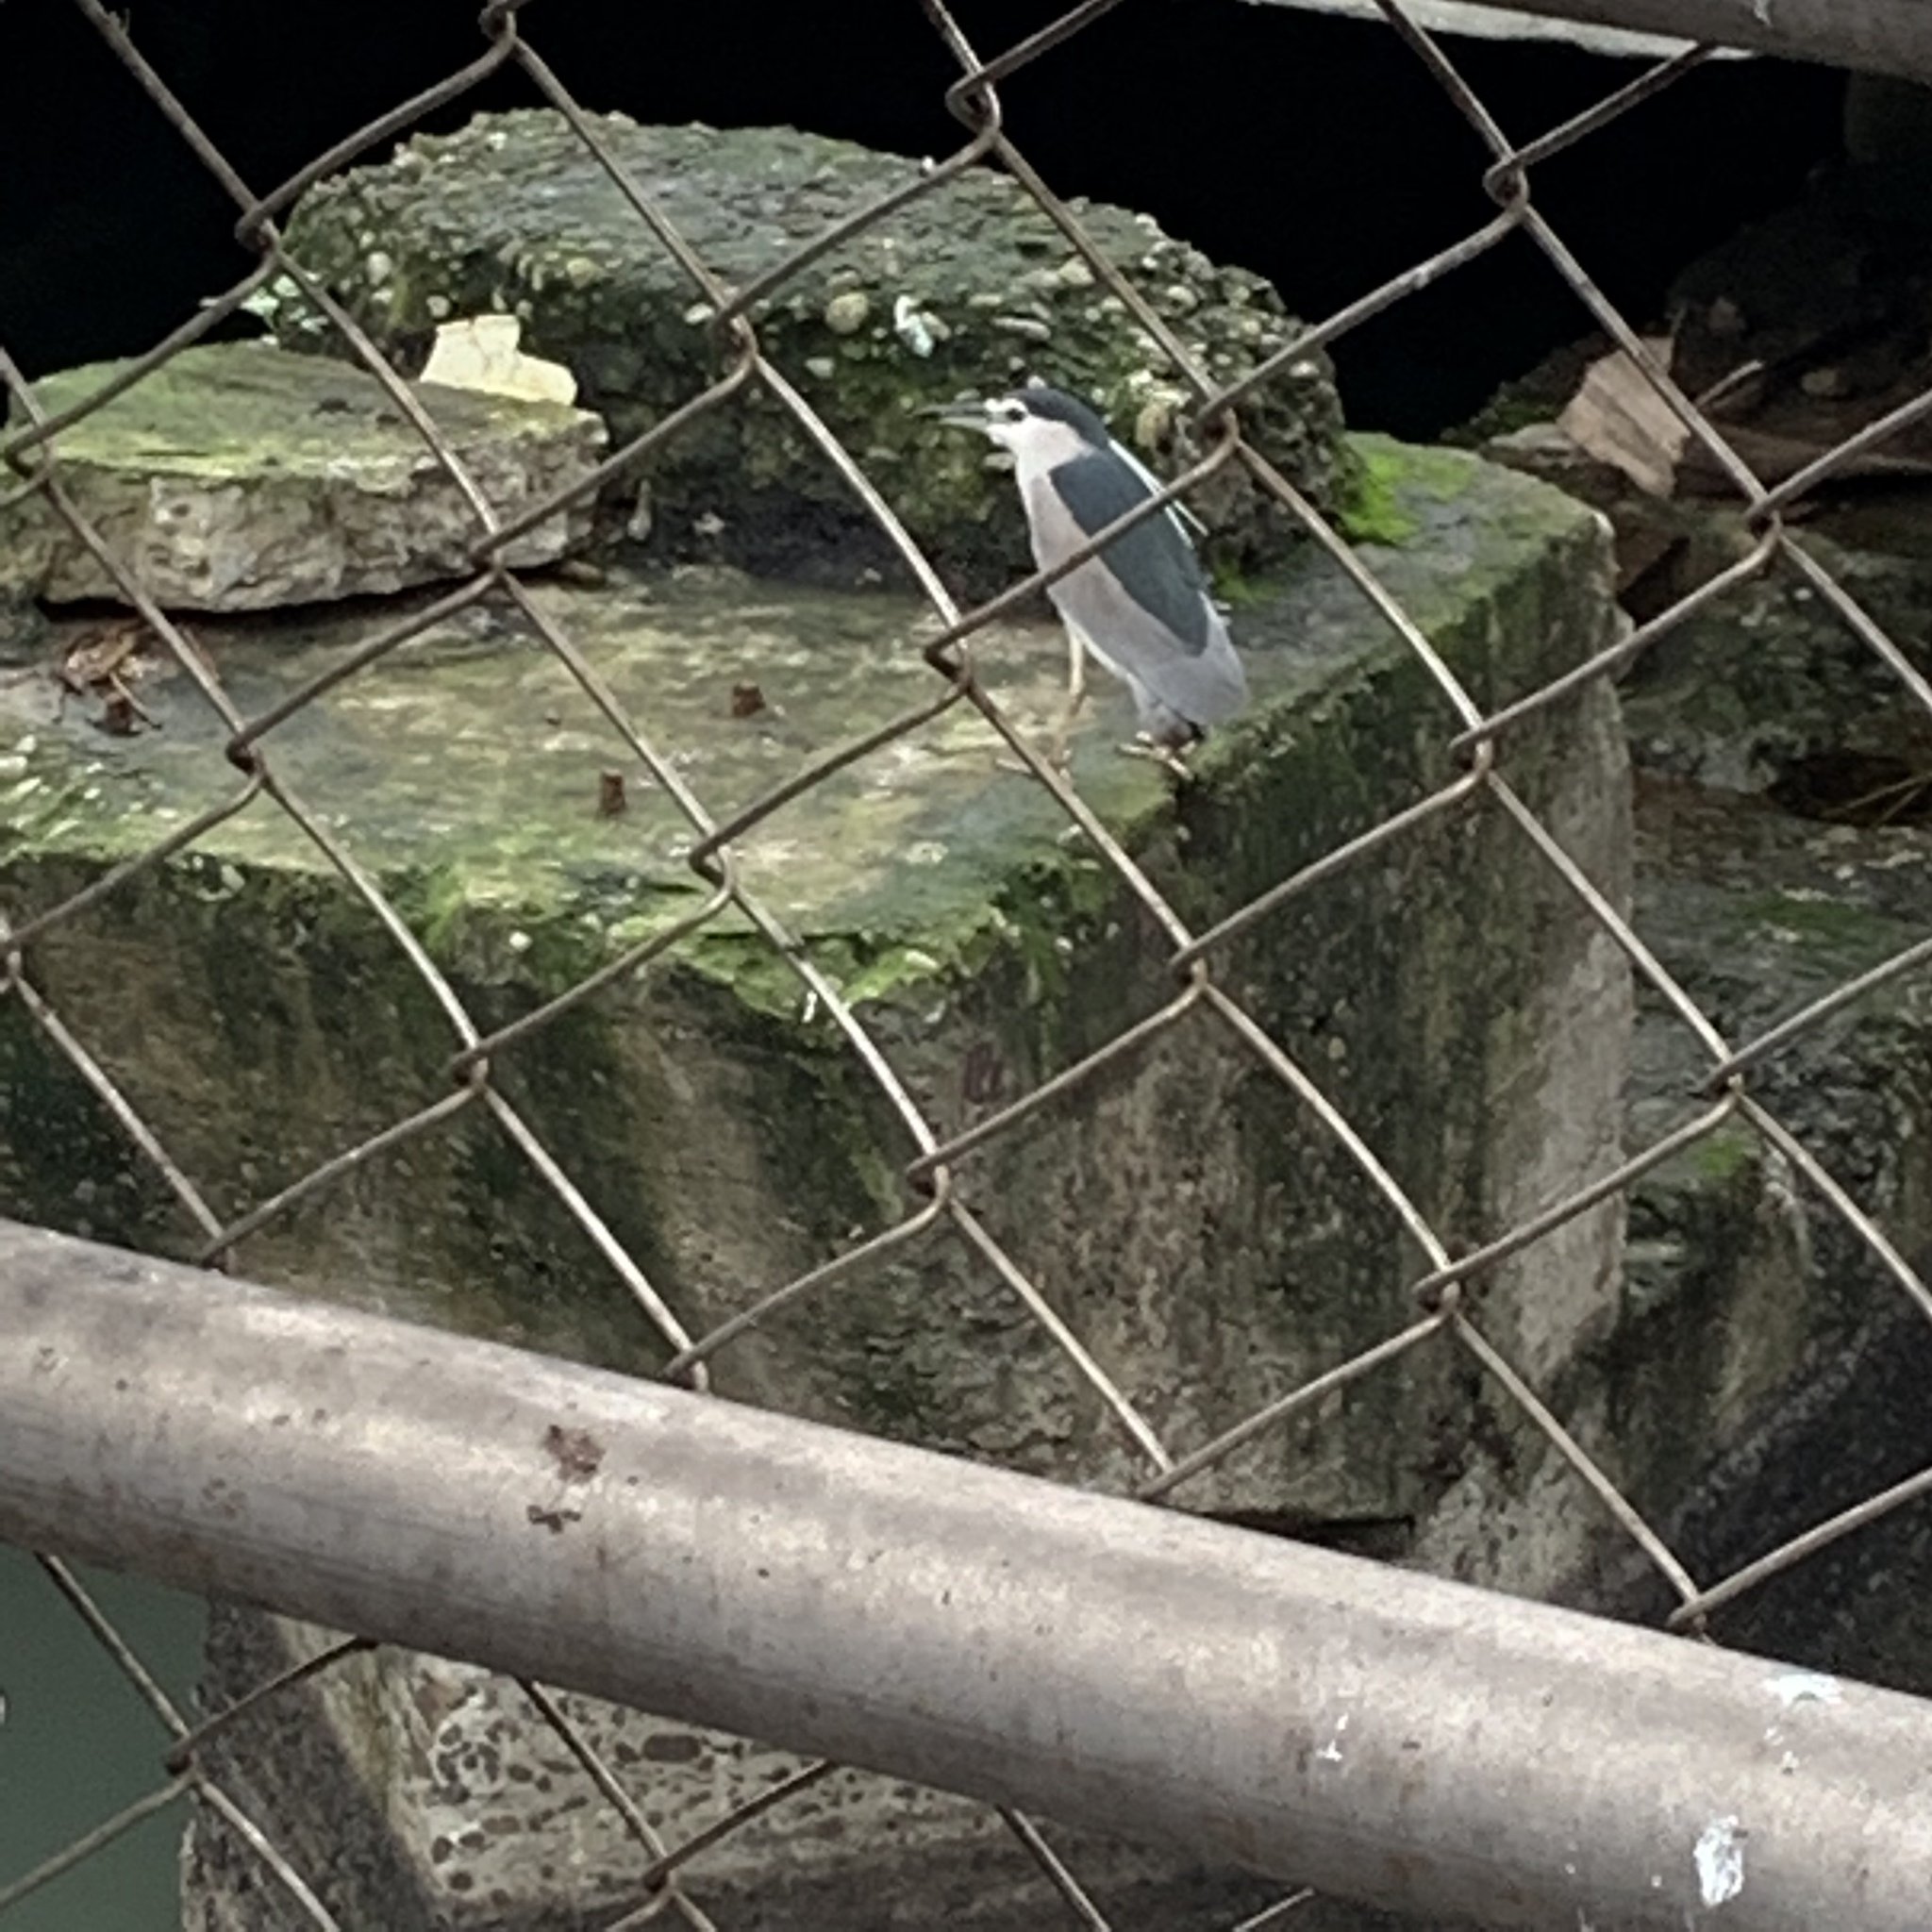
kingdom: Animalia
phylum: Chordata
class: Aves
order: Pelecaniformes
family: Ardeidae
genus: Nycticorax
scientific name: Nycticorax nycticorax
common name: Black-crowned night heron
